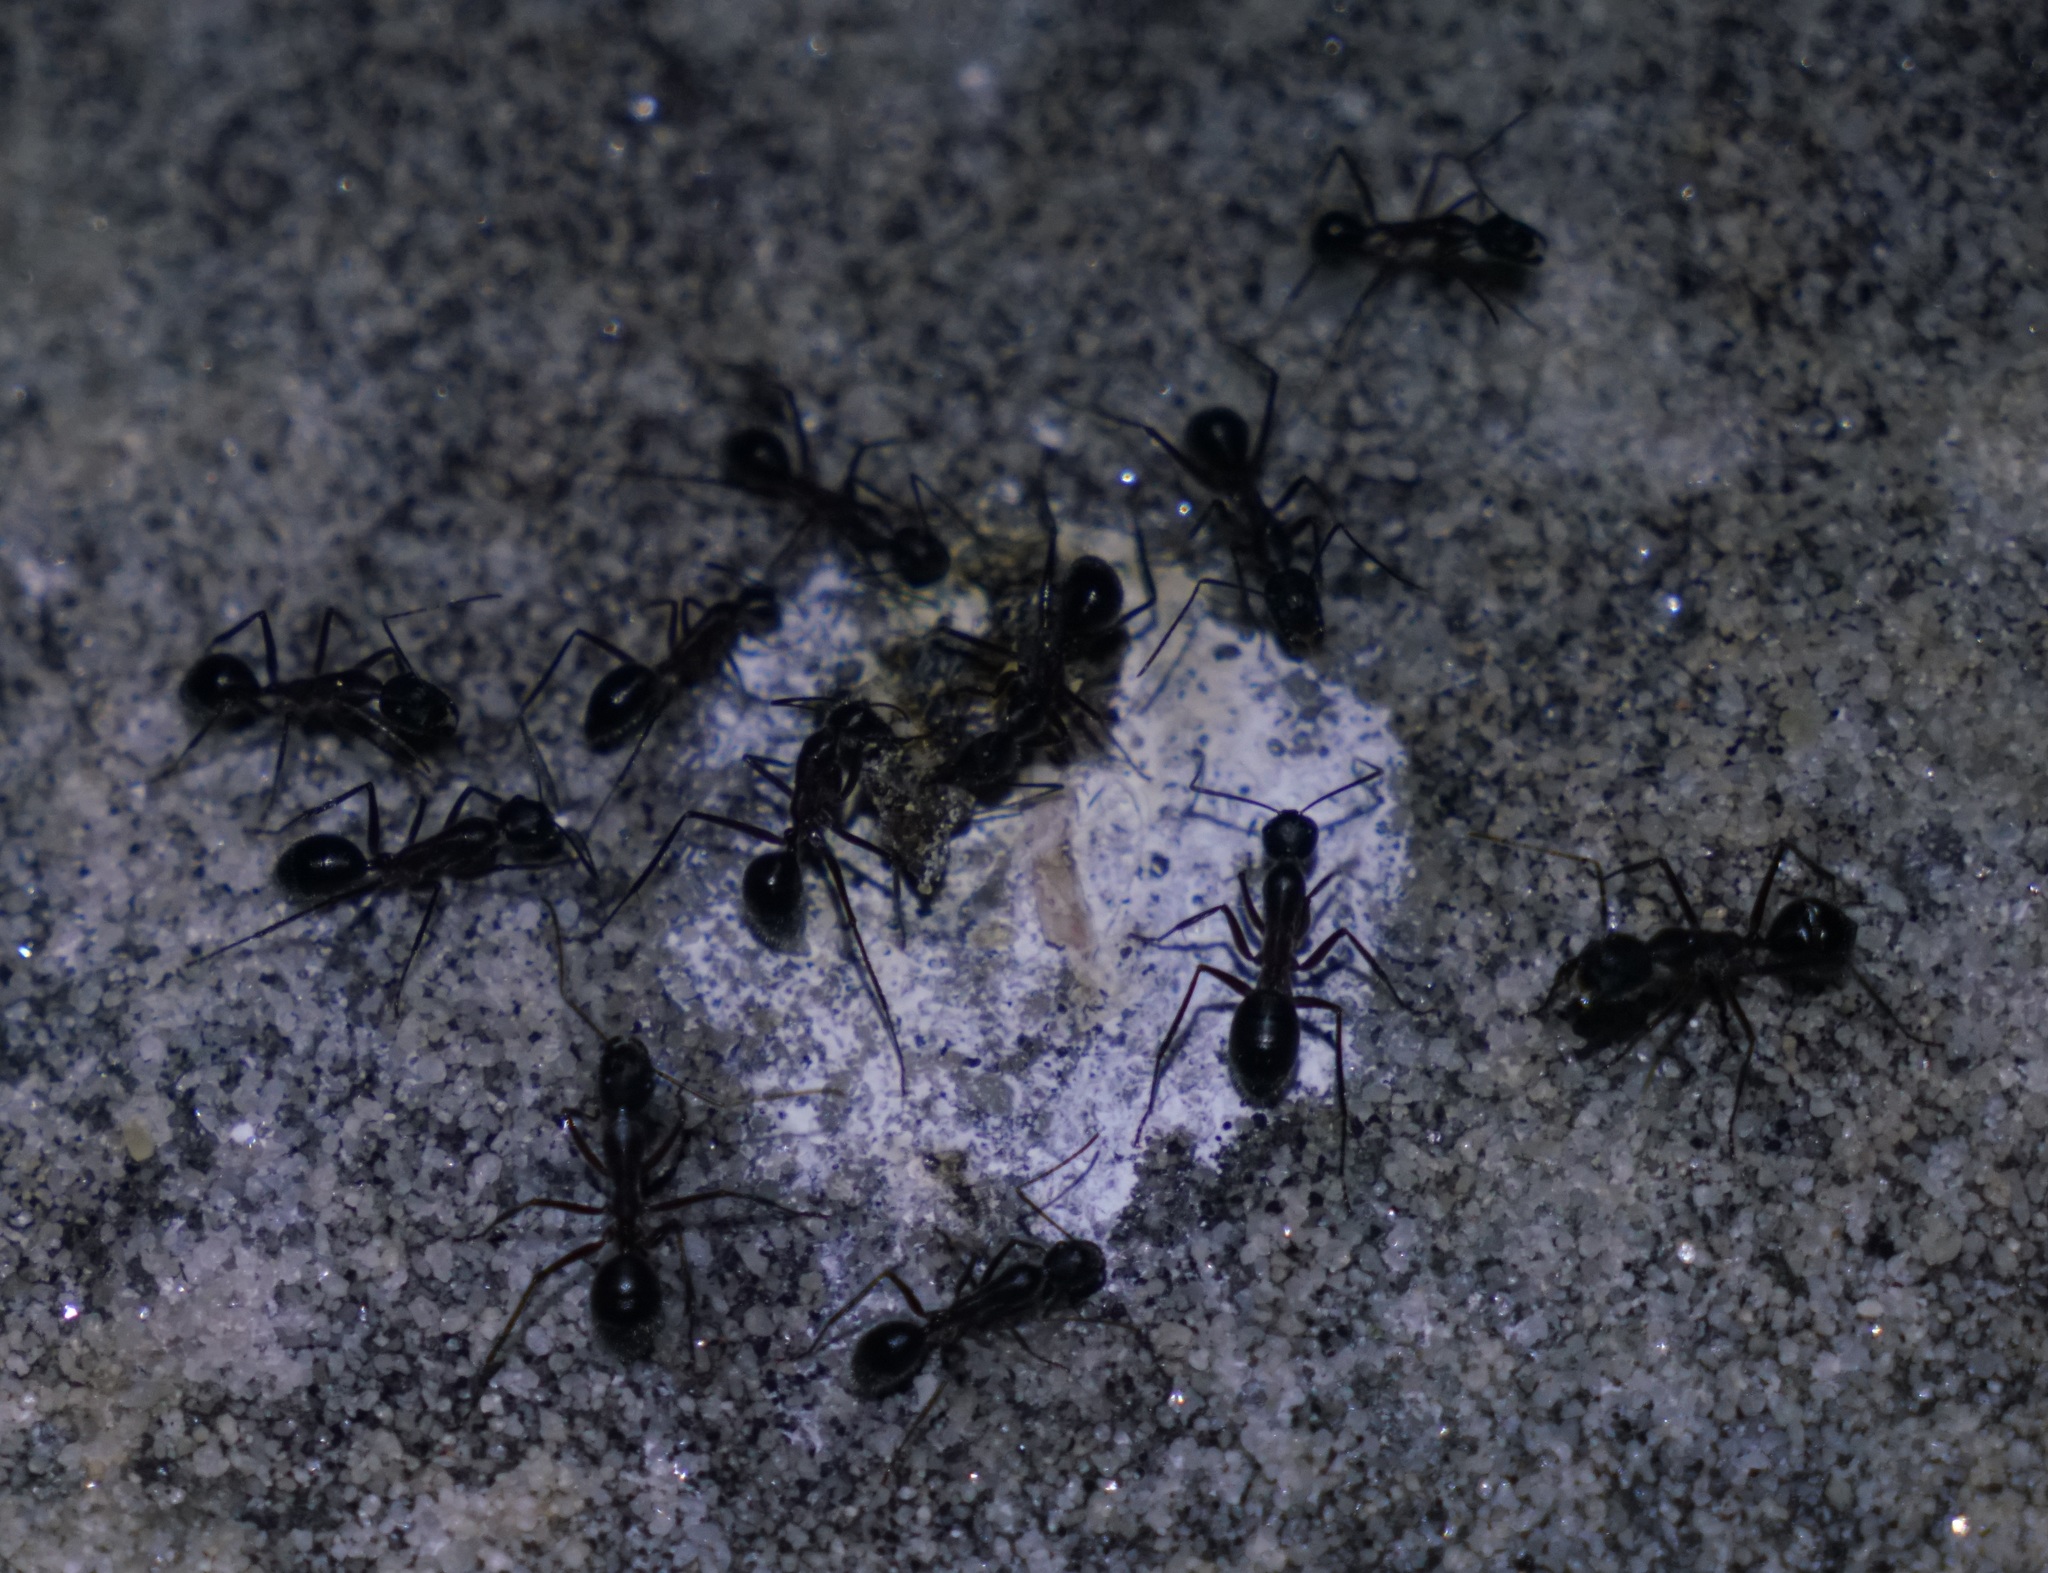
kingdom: Animalia
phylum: Arthropoda
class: Insecta
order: Hymenoptera
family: Formicidae
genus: Camponotus
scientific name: Camponotus intrepidus
